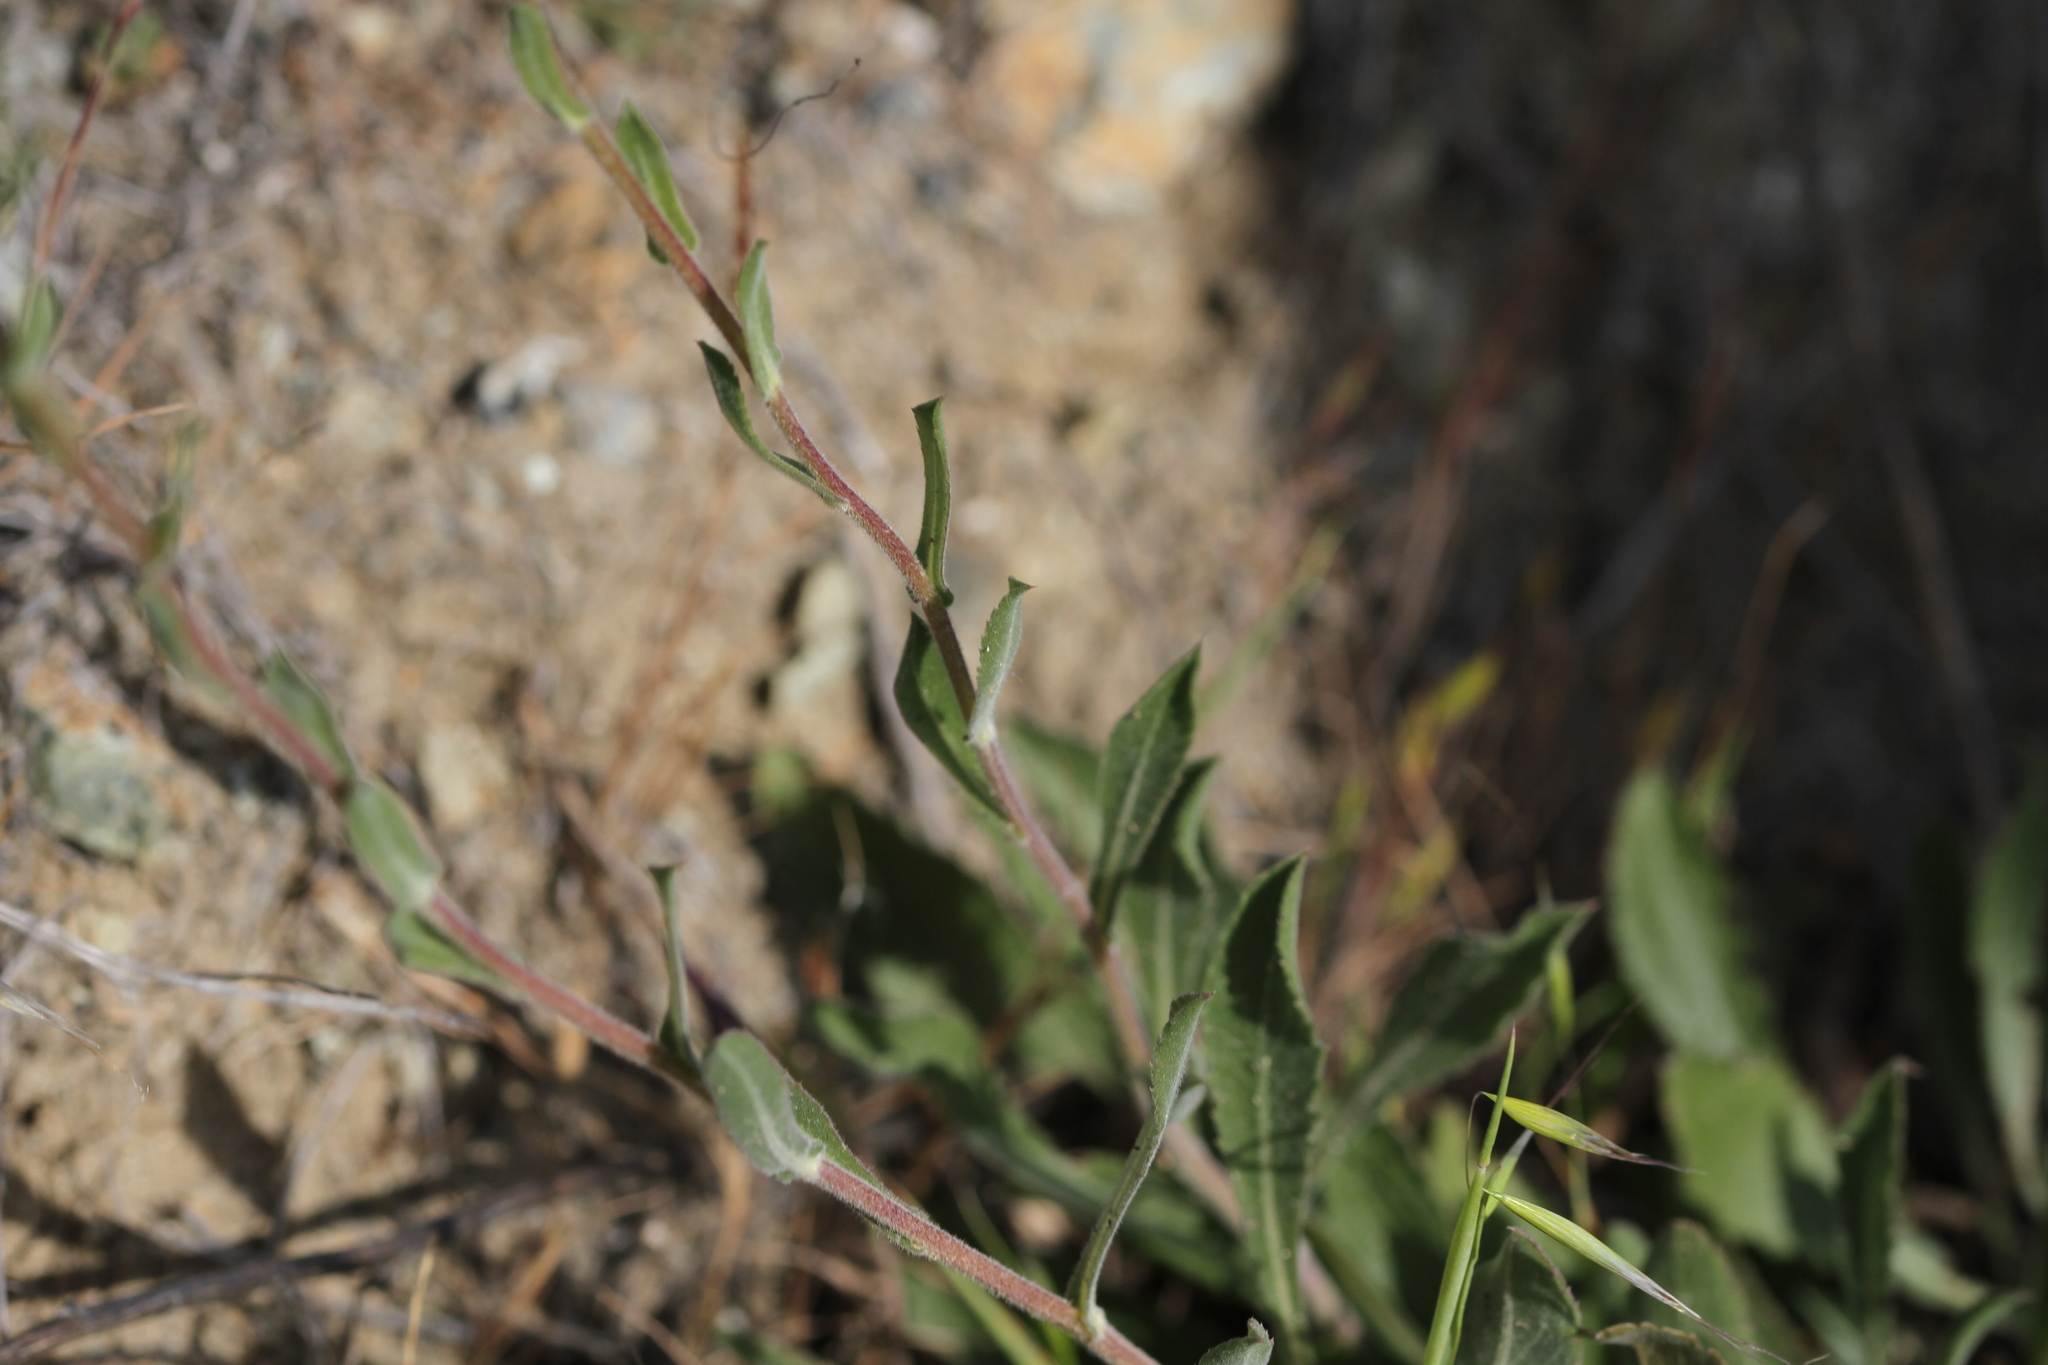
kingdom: Plantae
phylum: Tracheophyta
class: Magnoliopsida
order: Asterales
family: Asteraceae
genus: Grindelia
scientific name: Grindelia hirsutula
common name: Hairy gumweed
